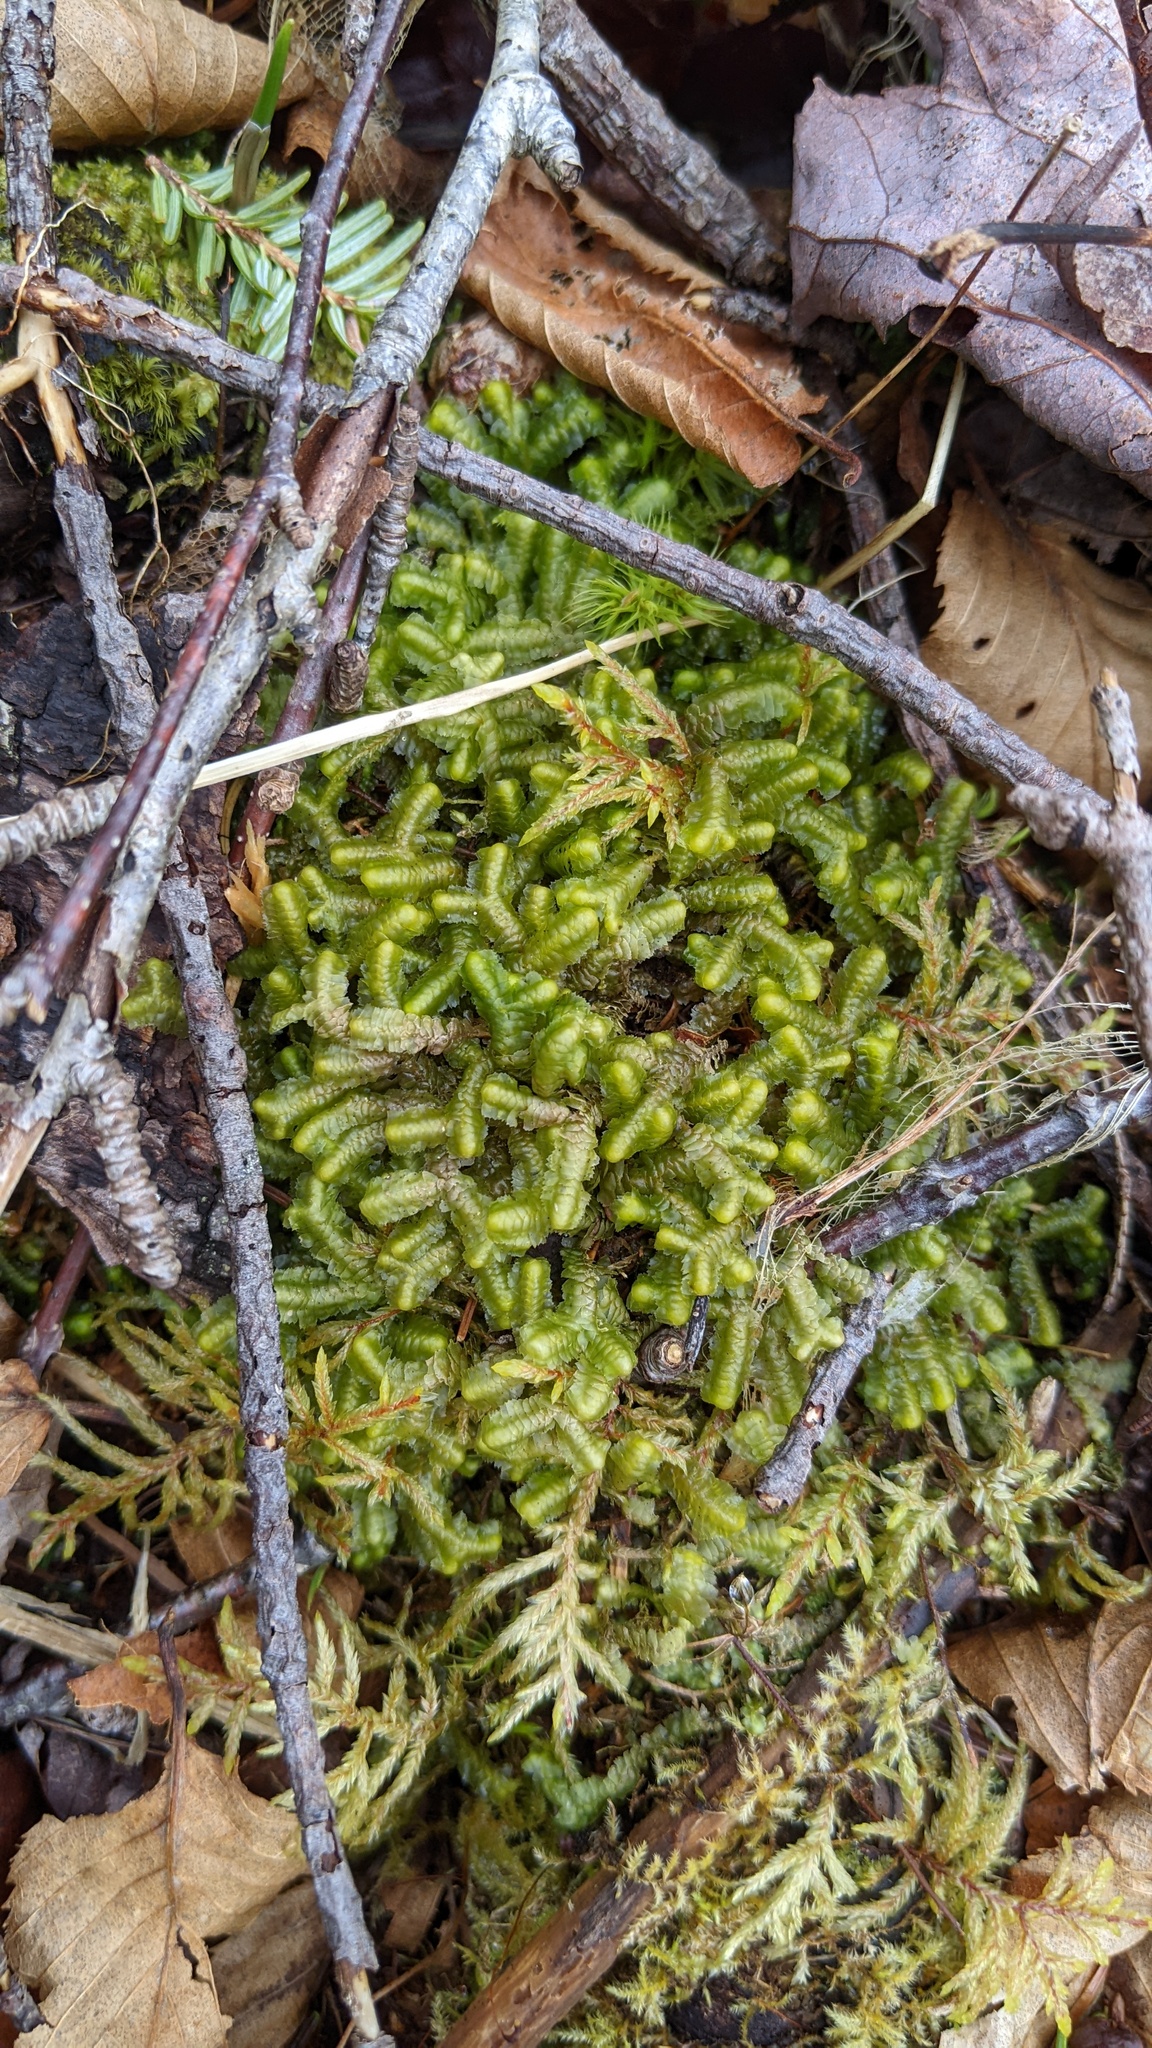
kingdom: Plantae
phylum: Marchantiophyta
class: Jungermanniopsida
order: Jungermanniales
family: Lepidoziaceae
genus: Bazzania
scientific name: Bazzania trilobata
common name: Three-lobed whipwort
